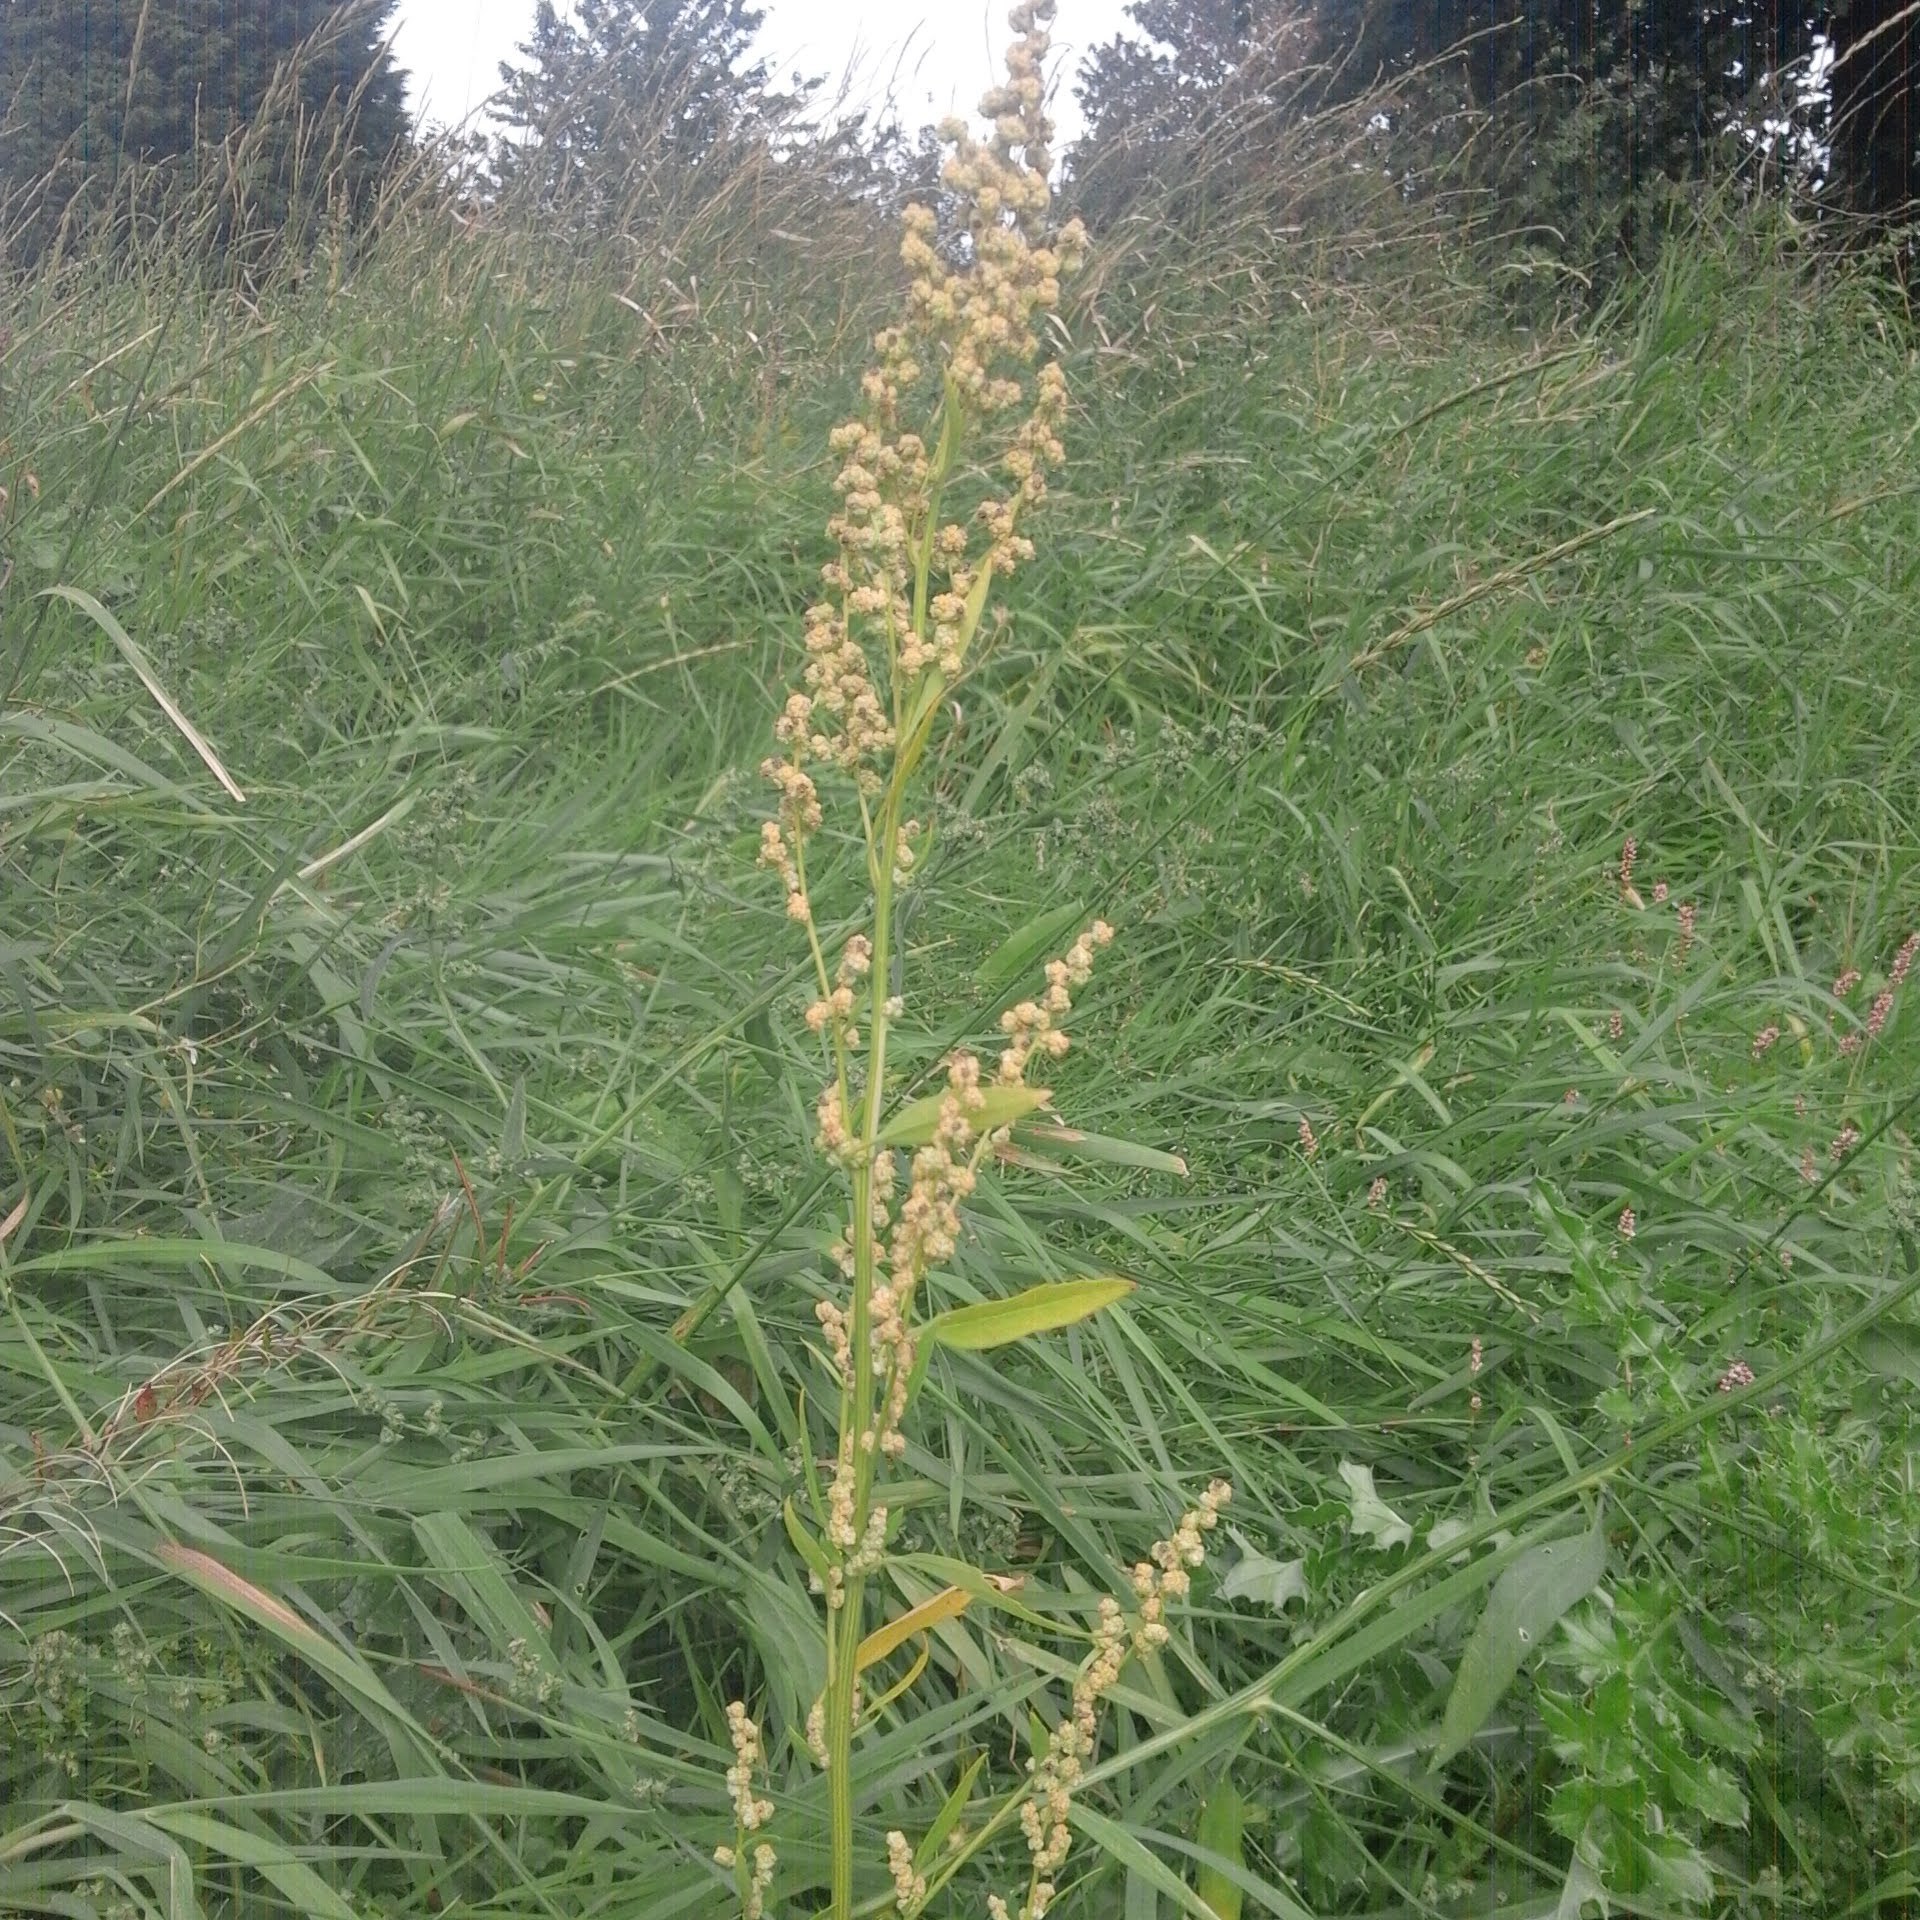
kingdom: Plantae
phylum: Tracheophyta
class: Magnoliopsida
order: Caryophyllales
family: Amaranthaceae
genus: Atriplex
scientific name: Atriplex patula
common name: Common orache
